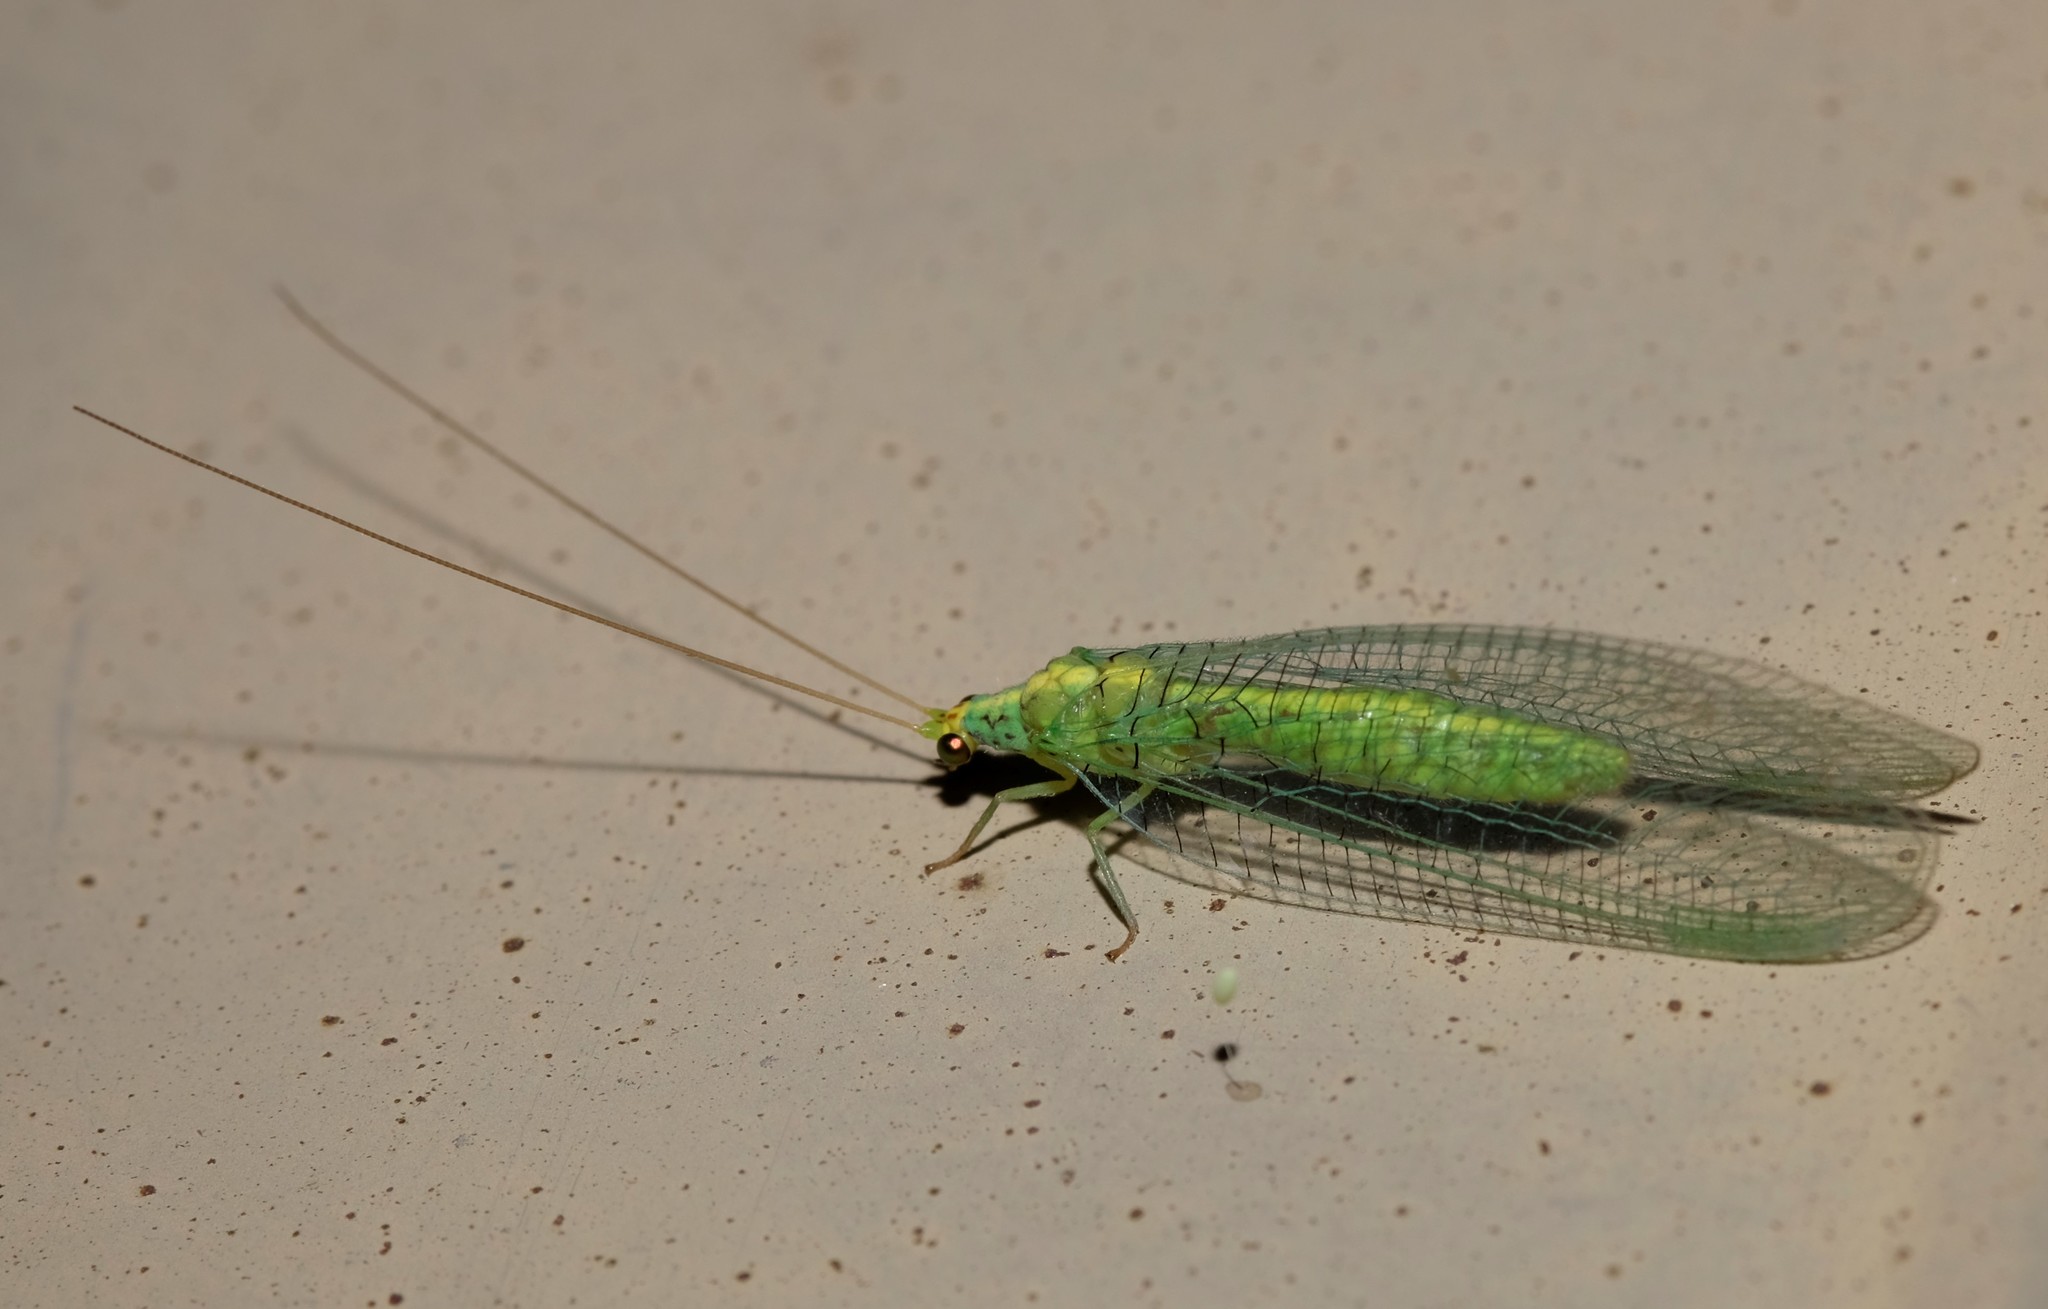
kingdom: Animalia
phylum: Arthropoda
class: Insecta
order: Neuroptera
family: Chrysopidae
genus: Pseudomallada
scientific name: Pseudomallada edwardsi
